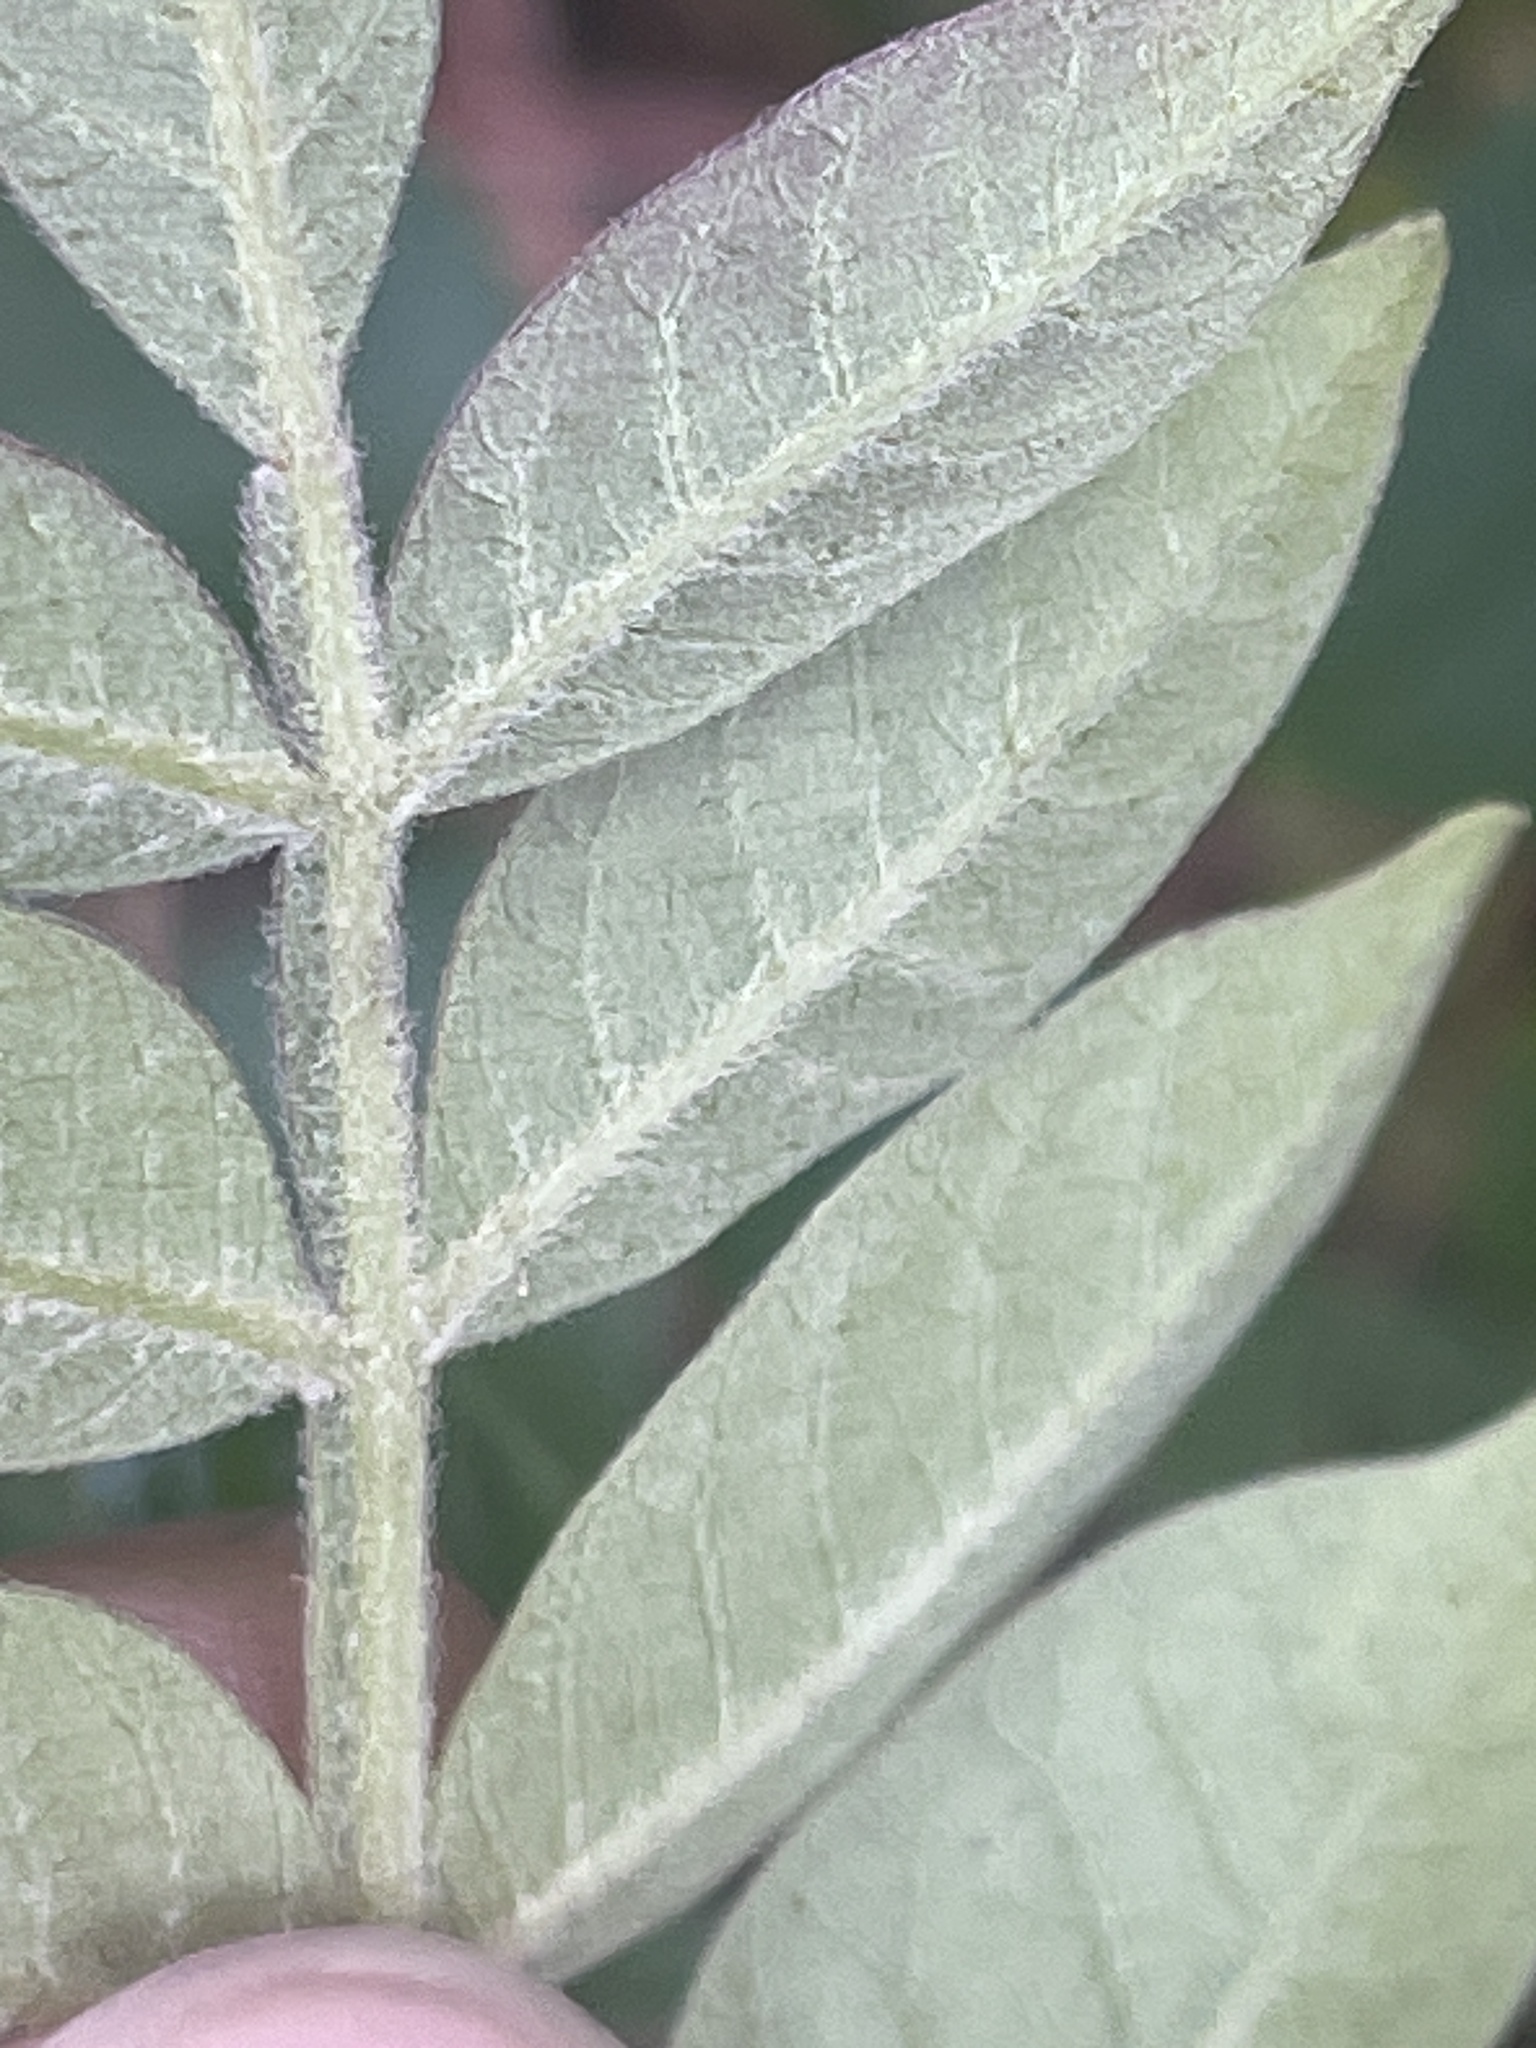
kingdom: Plantae
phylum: Tracheophyta
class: Magnoliopsida
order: Sapindales
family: Anacardiaceae
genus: Rhus
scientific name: Rhus copallina
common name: Shining sumac
